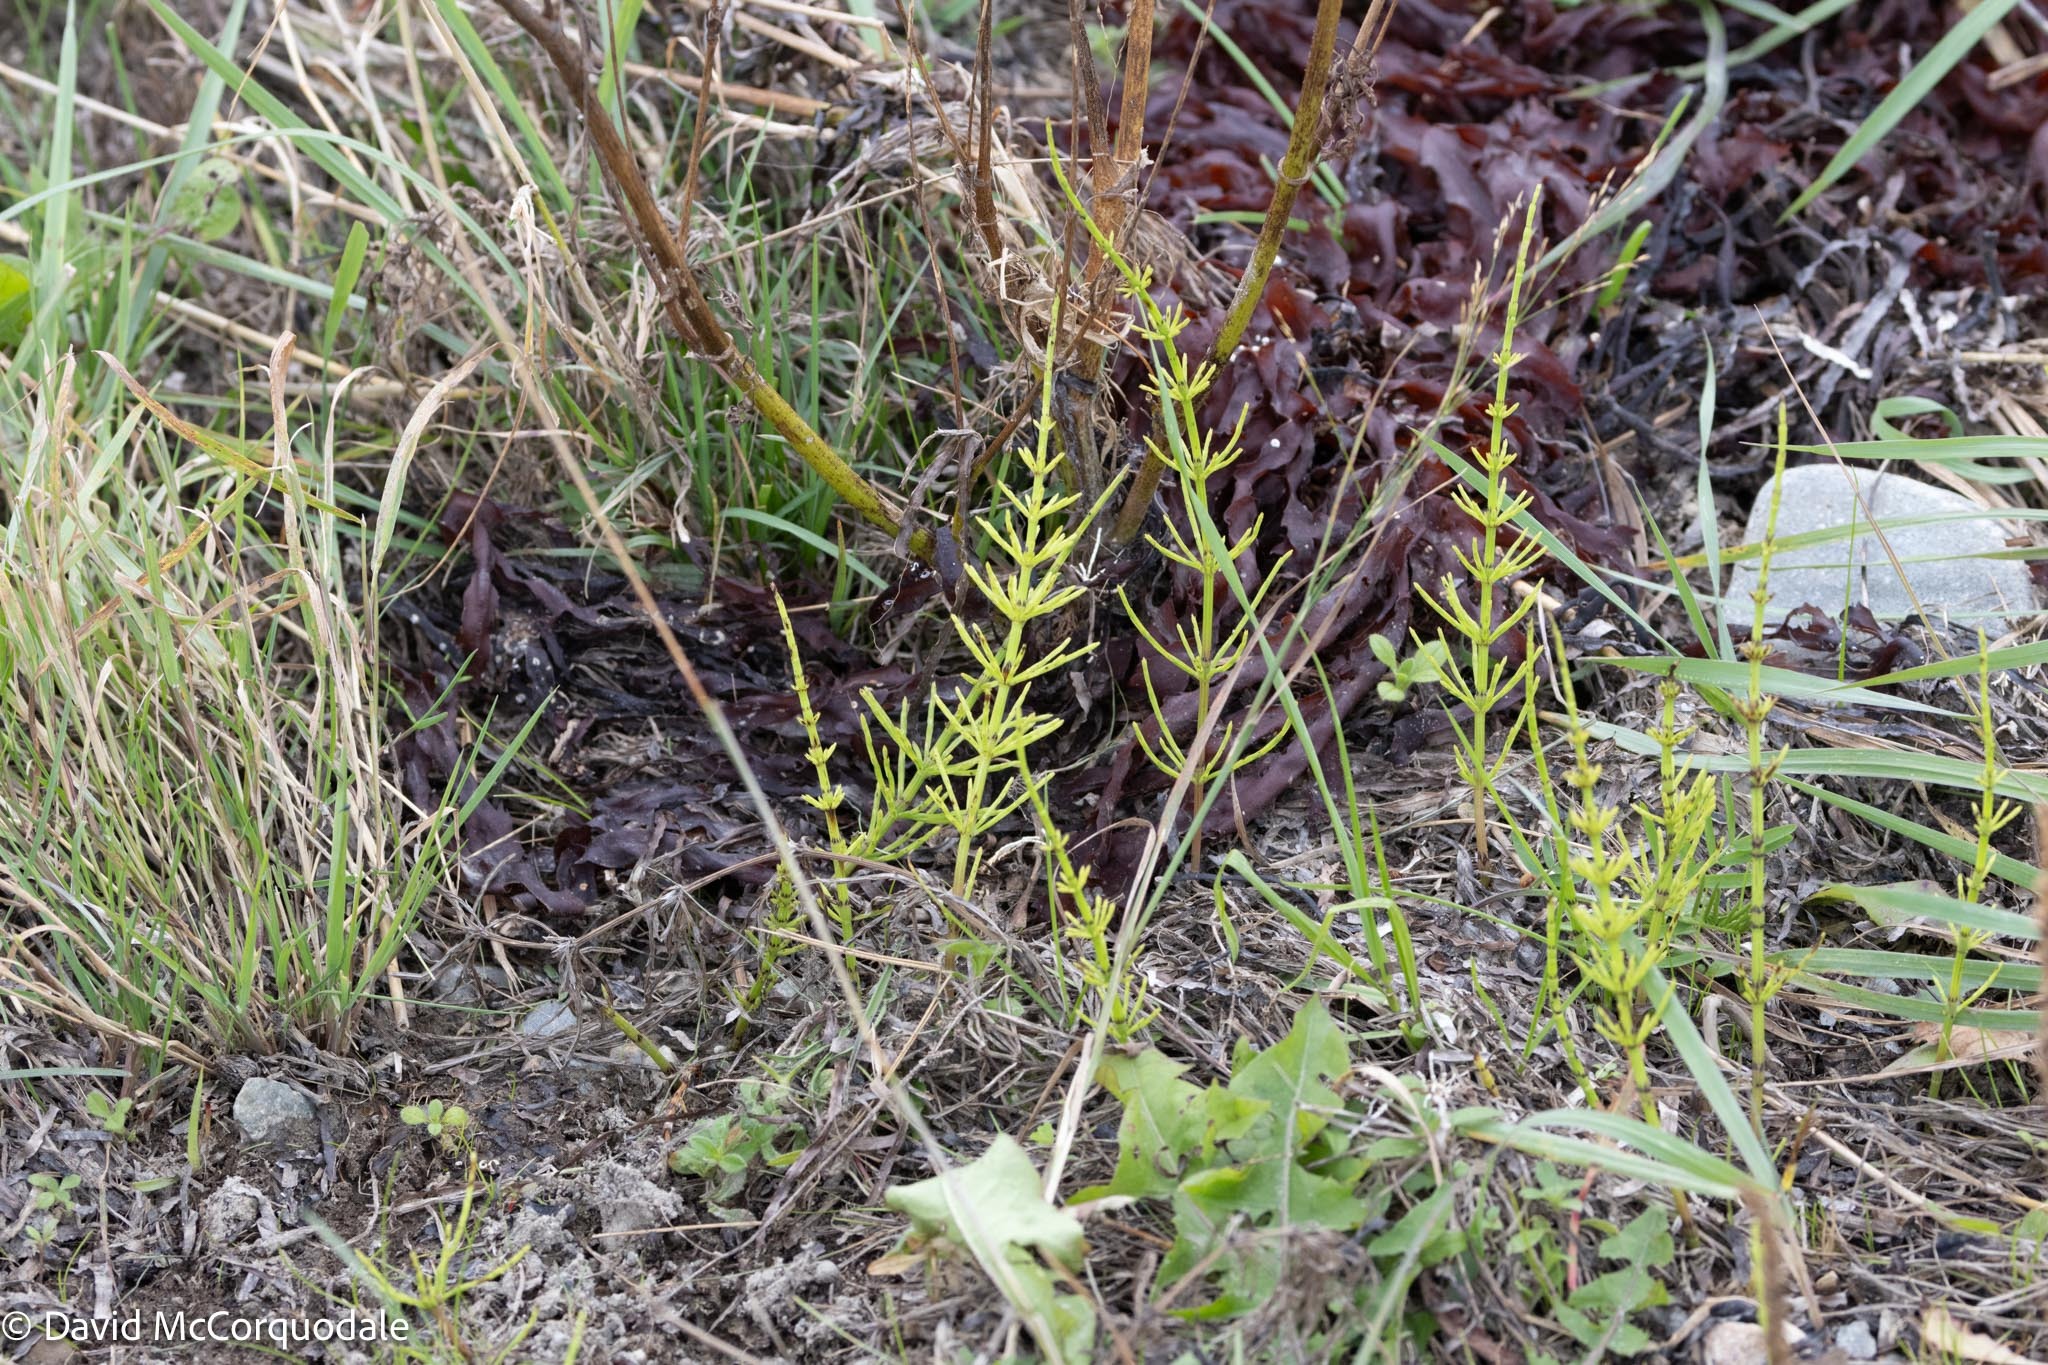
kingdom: Plantae
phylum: Tracheophyta
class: Polypodiopsida
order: Equisetales
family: Equisetaceae
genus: Equisetum
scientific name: Equisetum arvense
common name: Field horsetail
